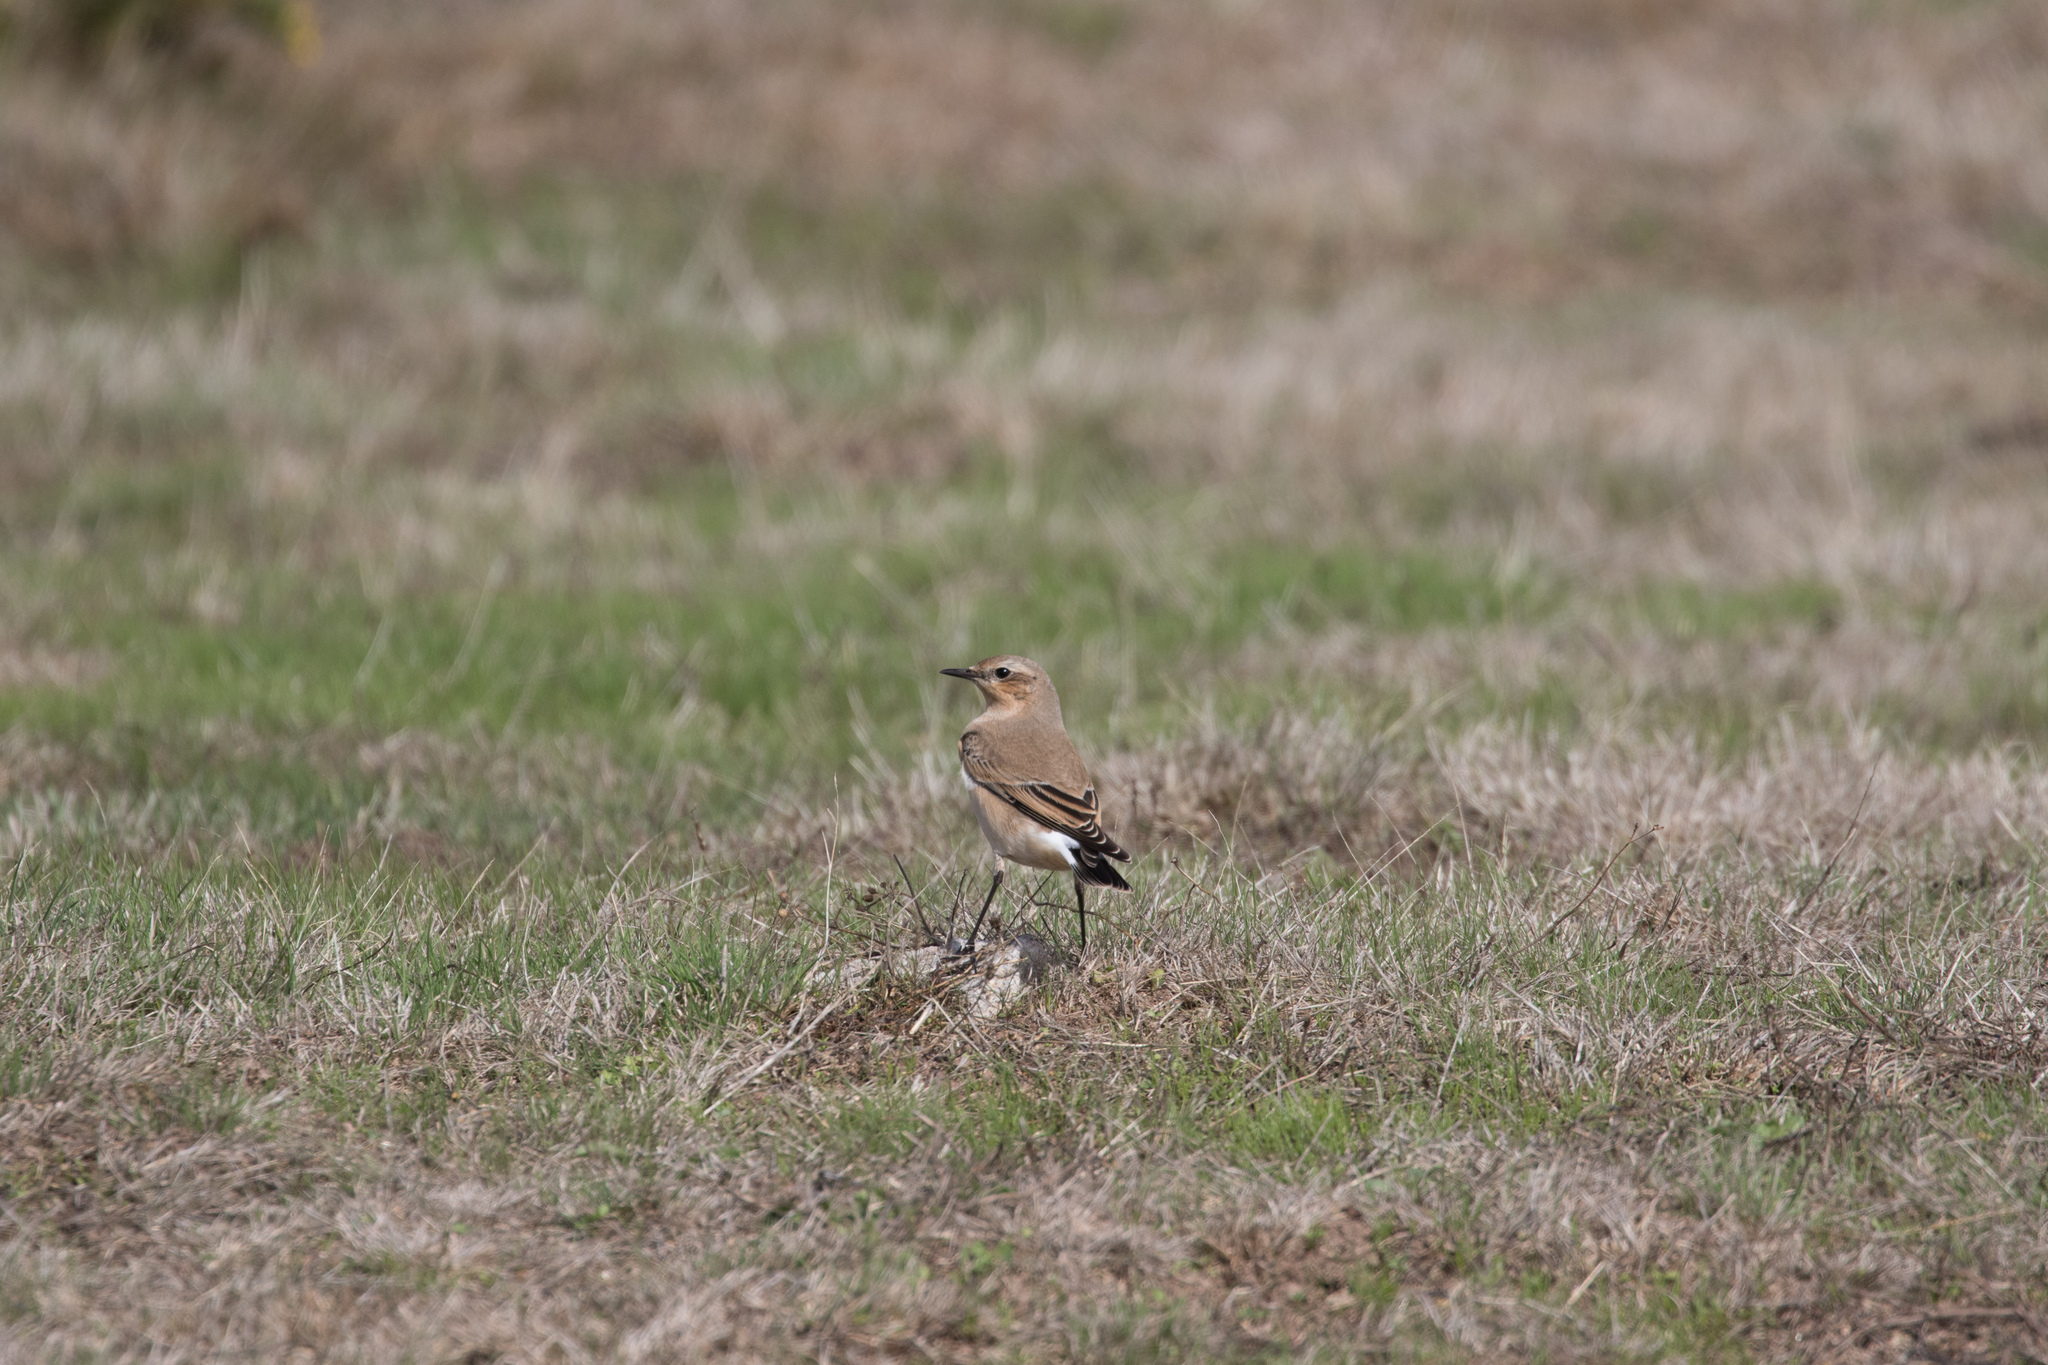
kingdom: Animalia
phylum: Chordata
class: Aves
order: Passeriformes
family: Muscicapidae
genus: Oenanthe
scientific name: Oenanthe oenanthe
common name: Northern wheatear
